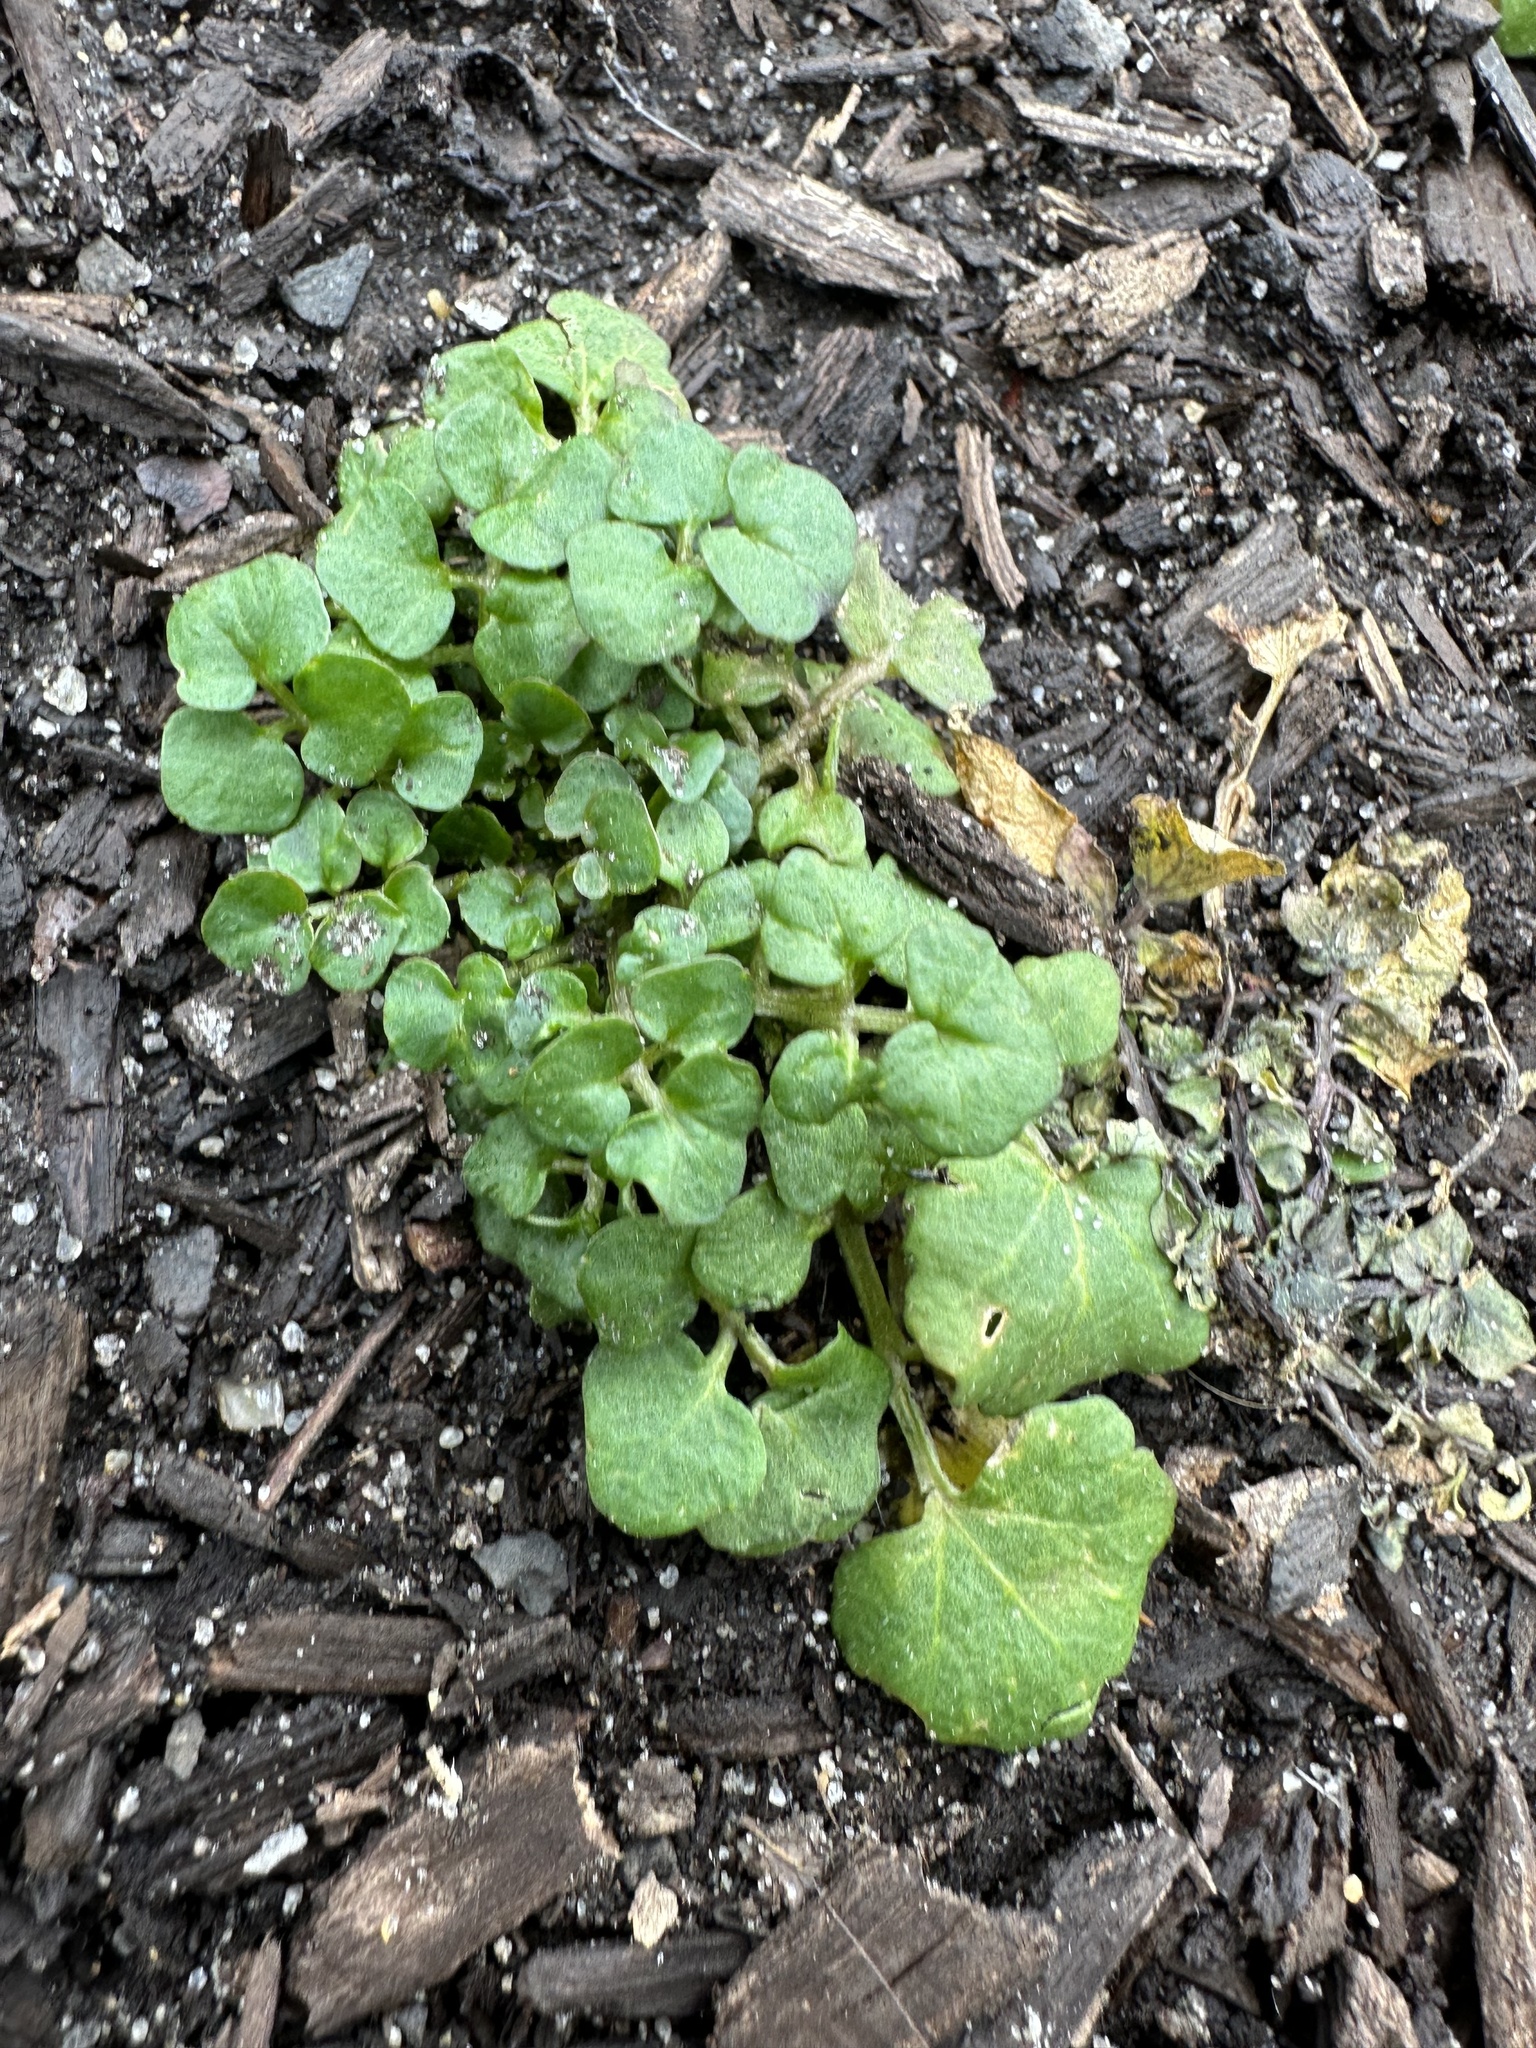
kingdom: Plantae
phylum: Tracheophyta
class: Magnoliopsida
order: Brassicales
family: Brassicaceae
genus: Cardamine
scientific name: Cardamine hirsuta
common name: Hairy bittercress
